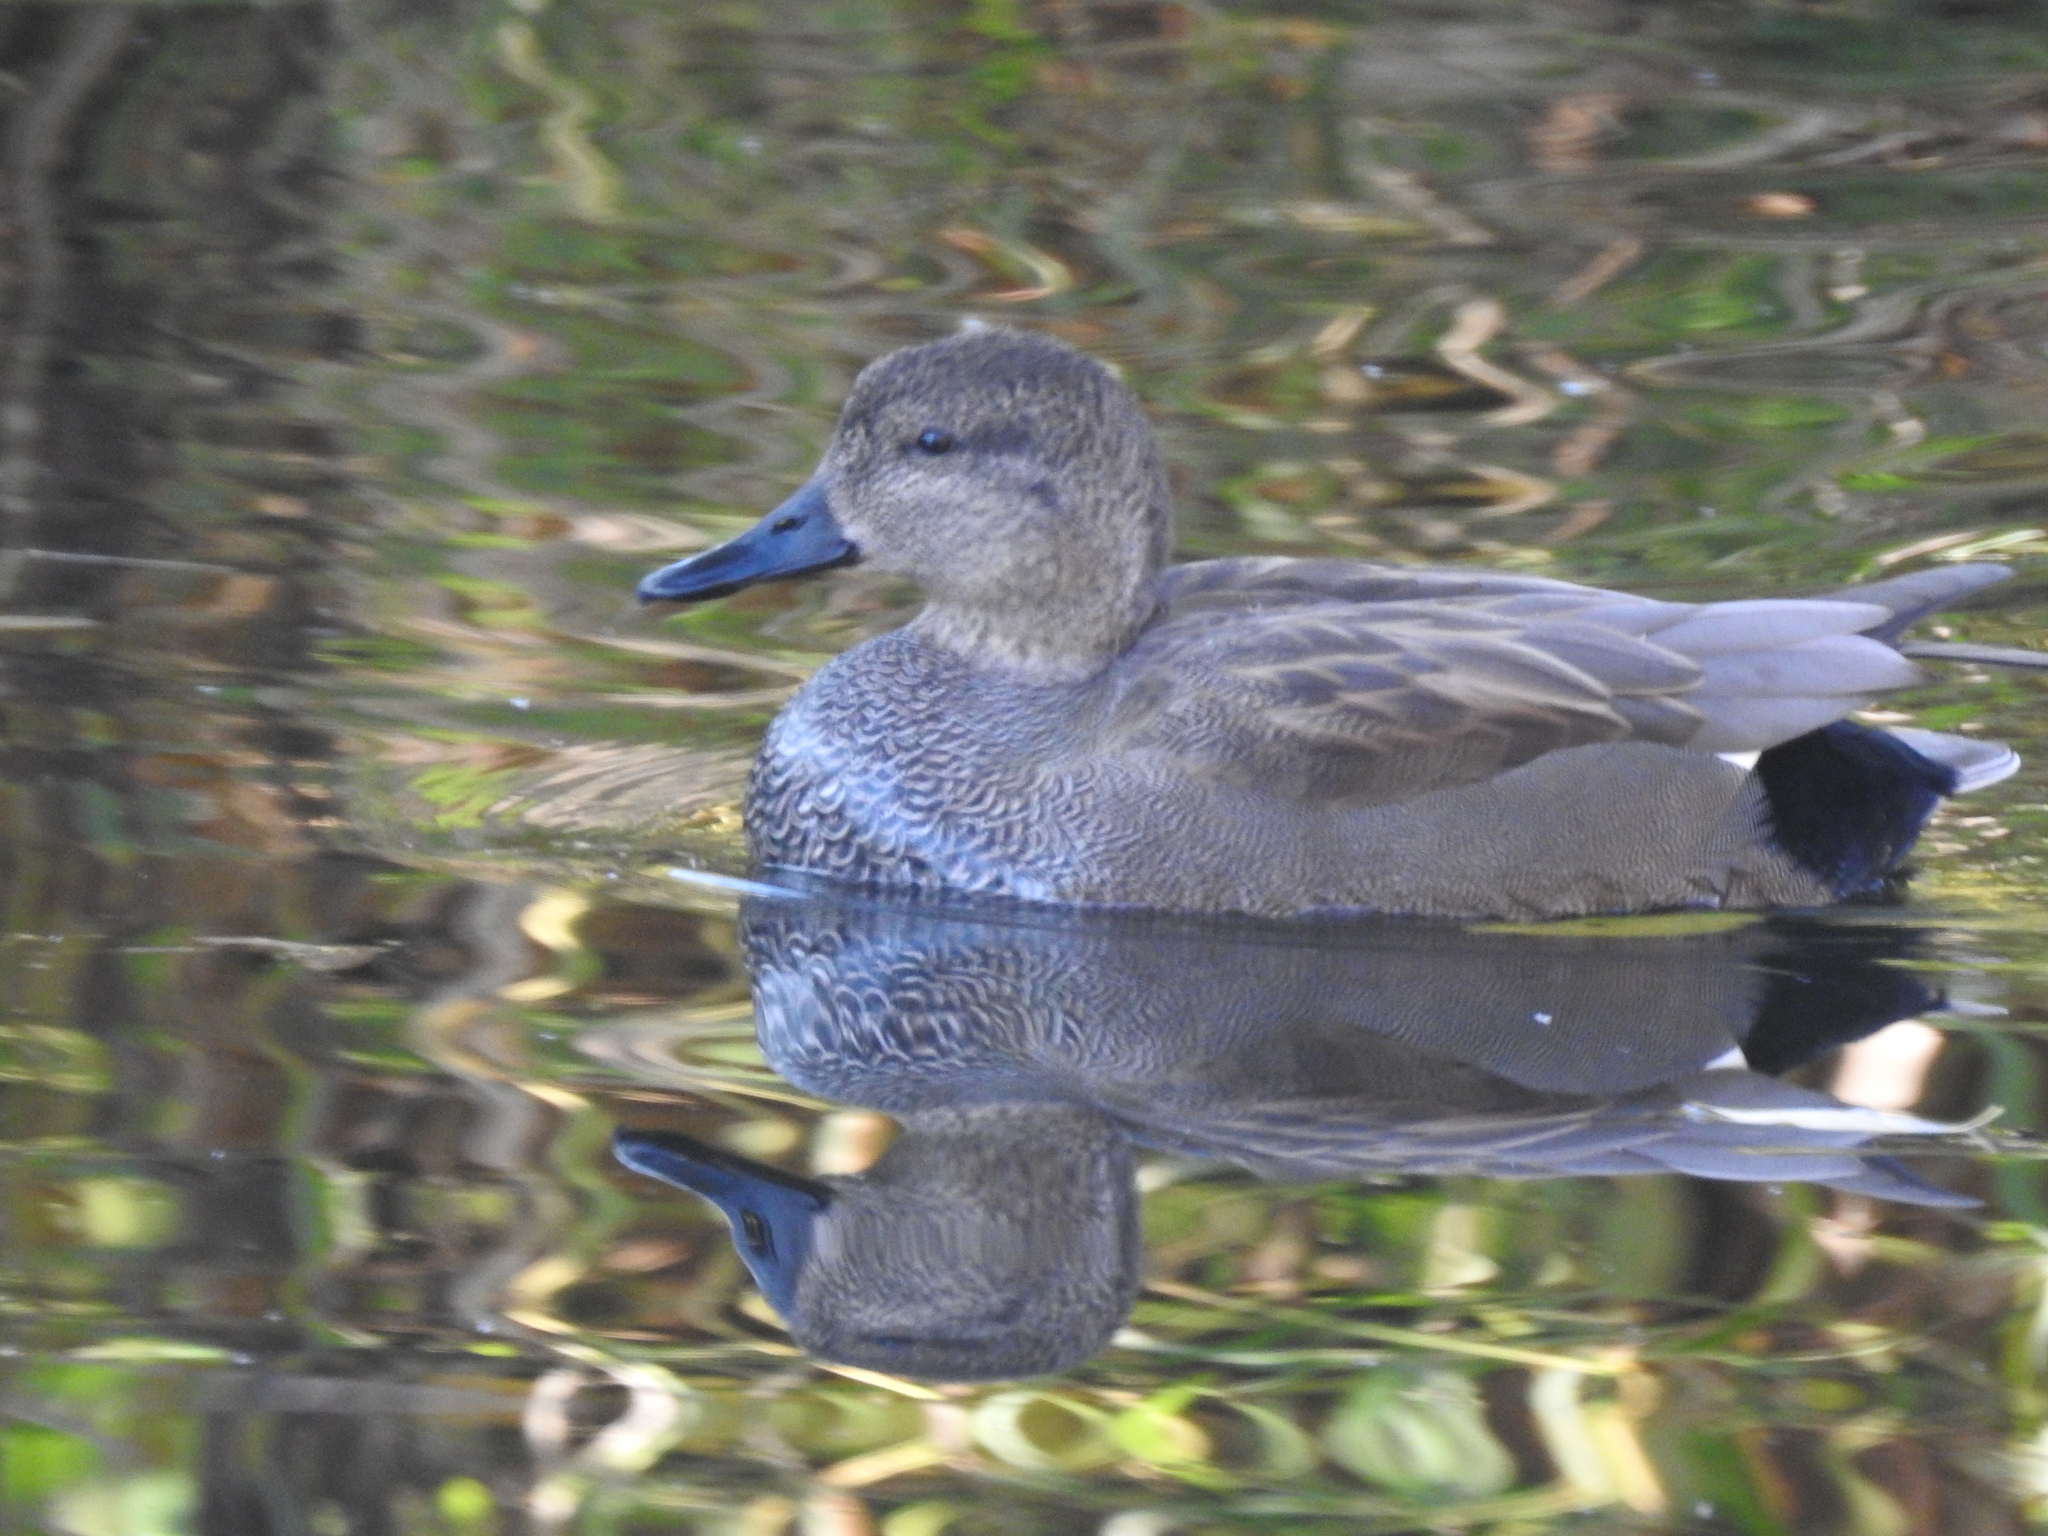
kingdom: Animalia
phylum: Chordata
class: Aves
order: Anseriformes
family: Anatidae
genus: Mareca
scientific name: Mareca strepera
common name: Gadwall
